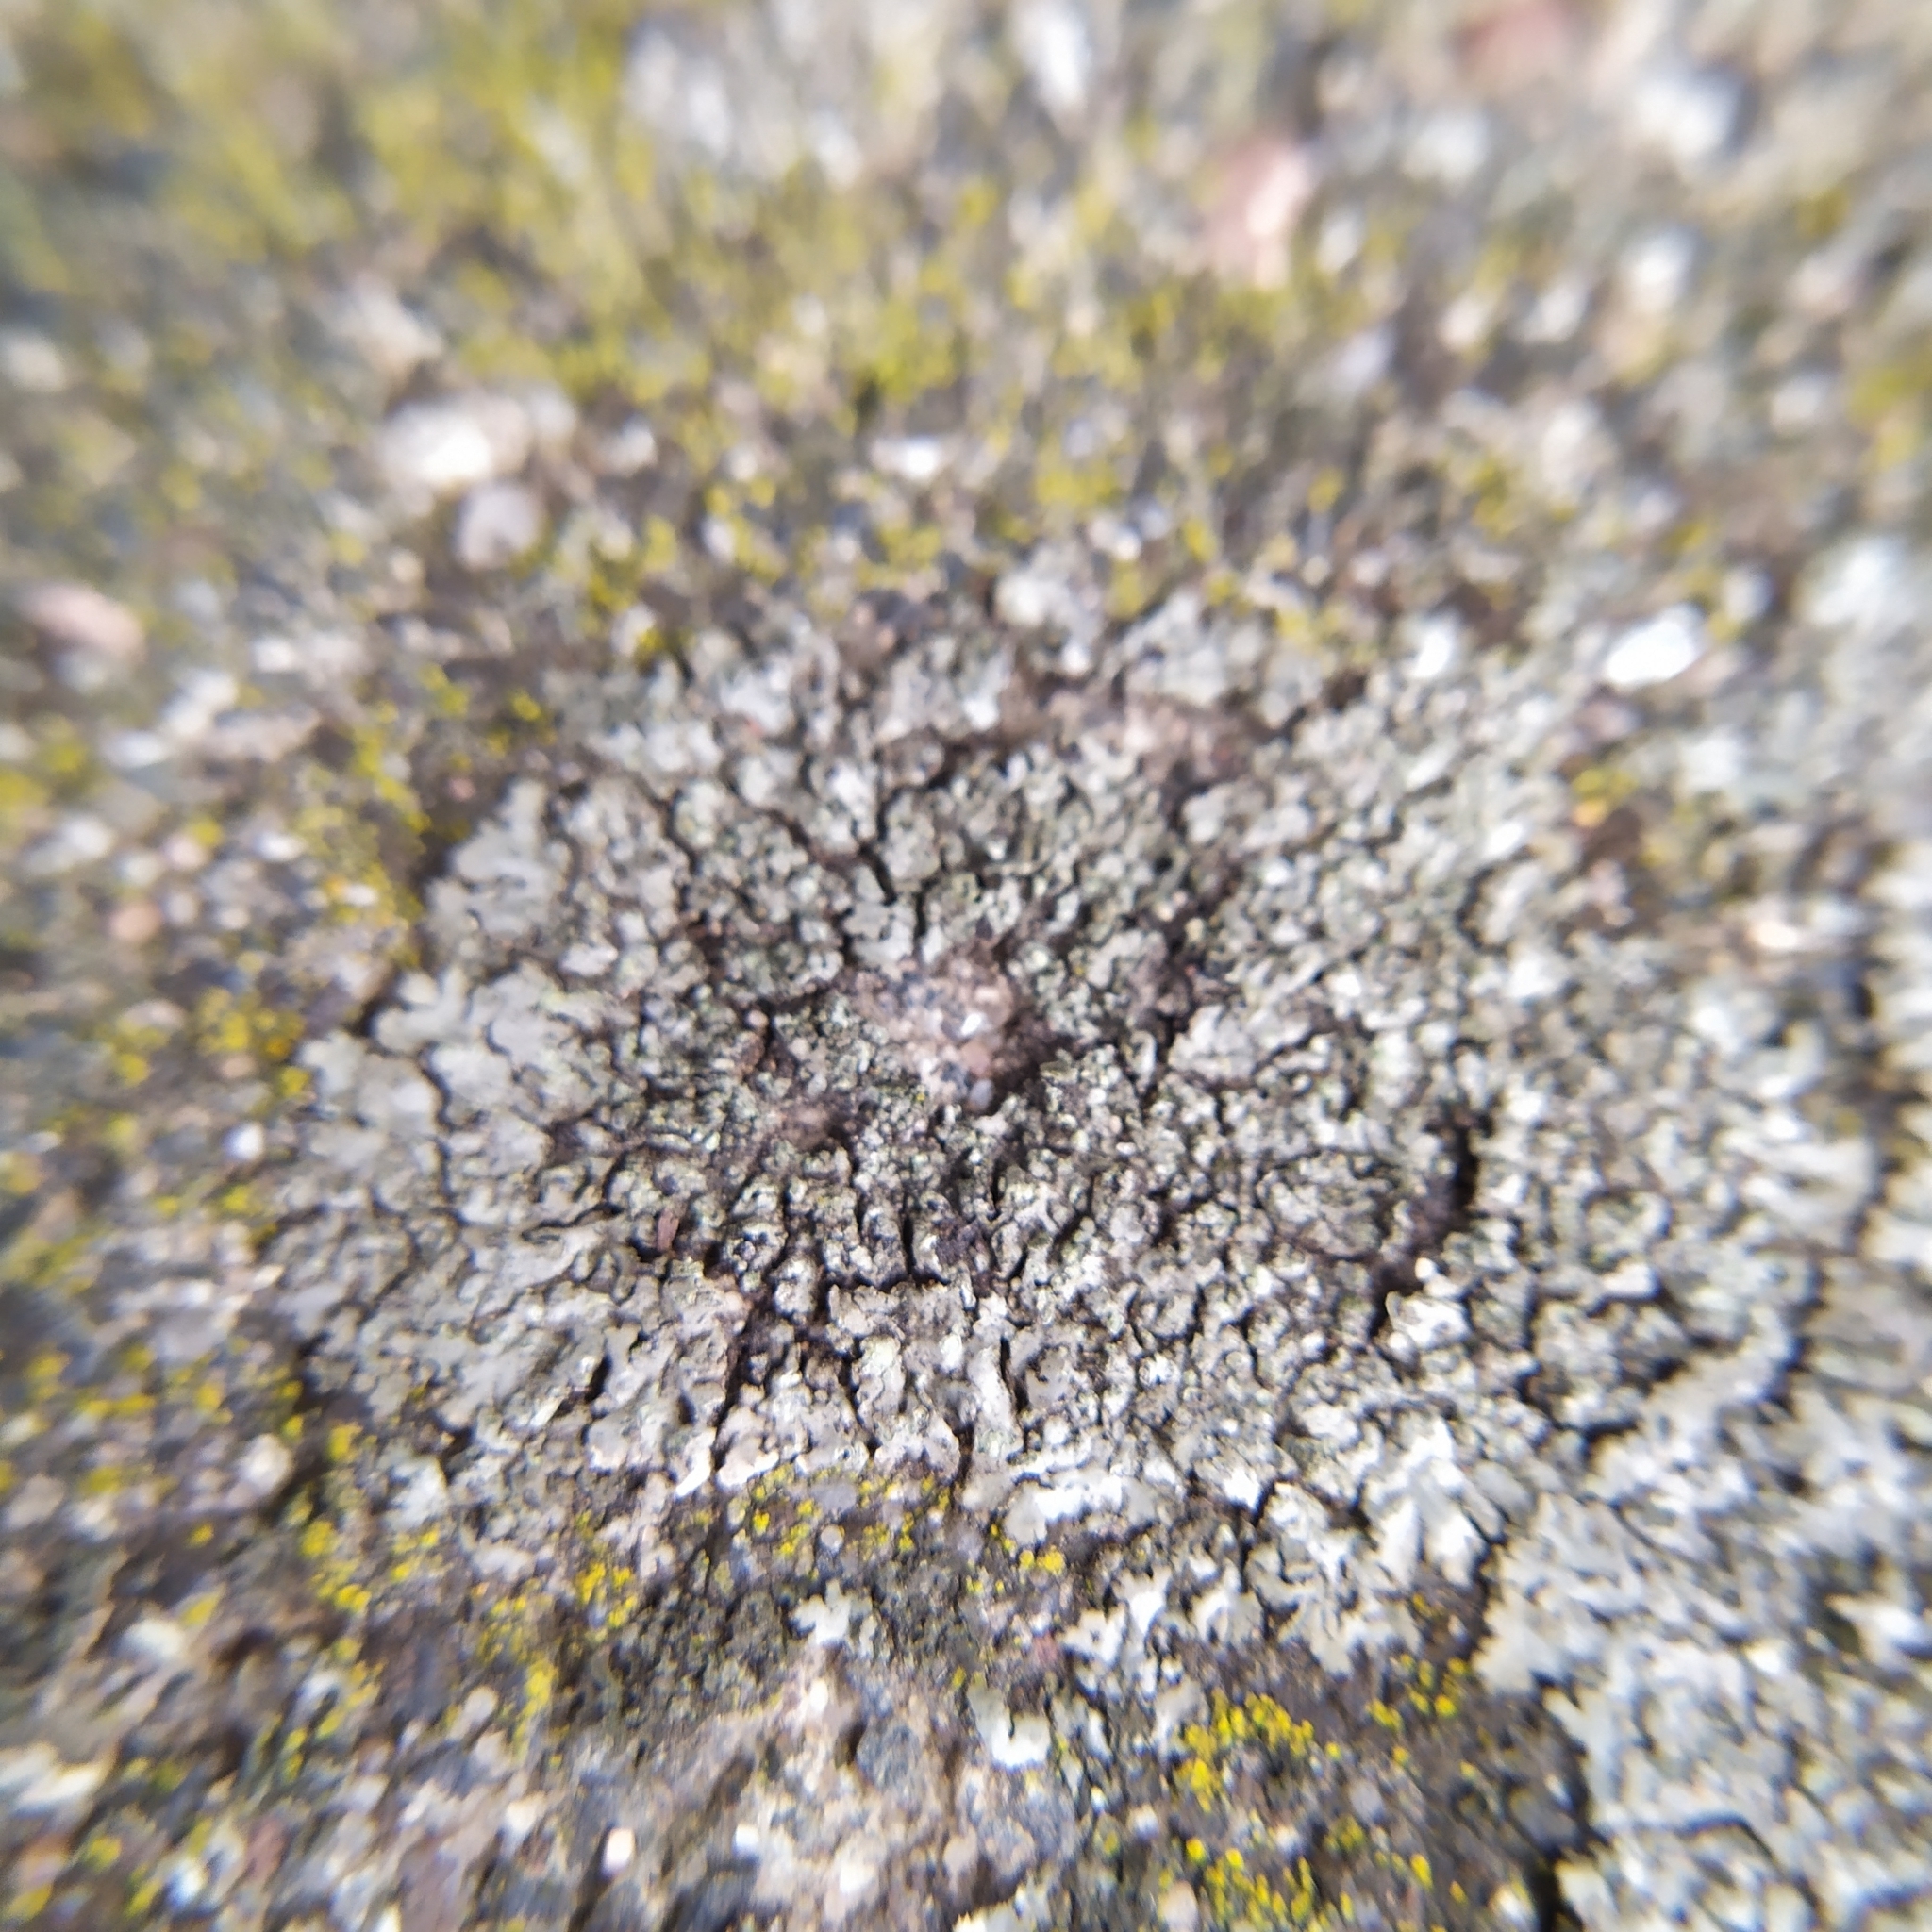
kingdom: Fungi
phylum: Ascomycota
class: Lecanoromycetes
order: Caliciales
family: Physciaceae
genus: Phaeophyscia
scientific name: Phaeophyscia orbicularis
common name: Mealy shadow lichen
